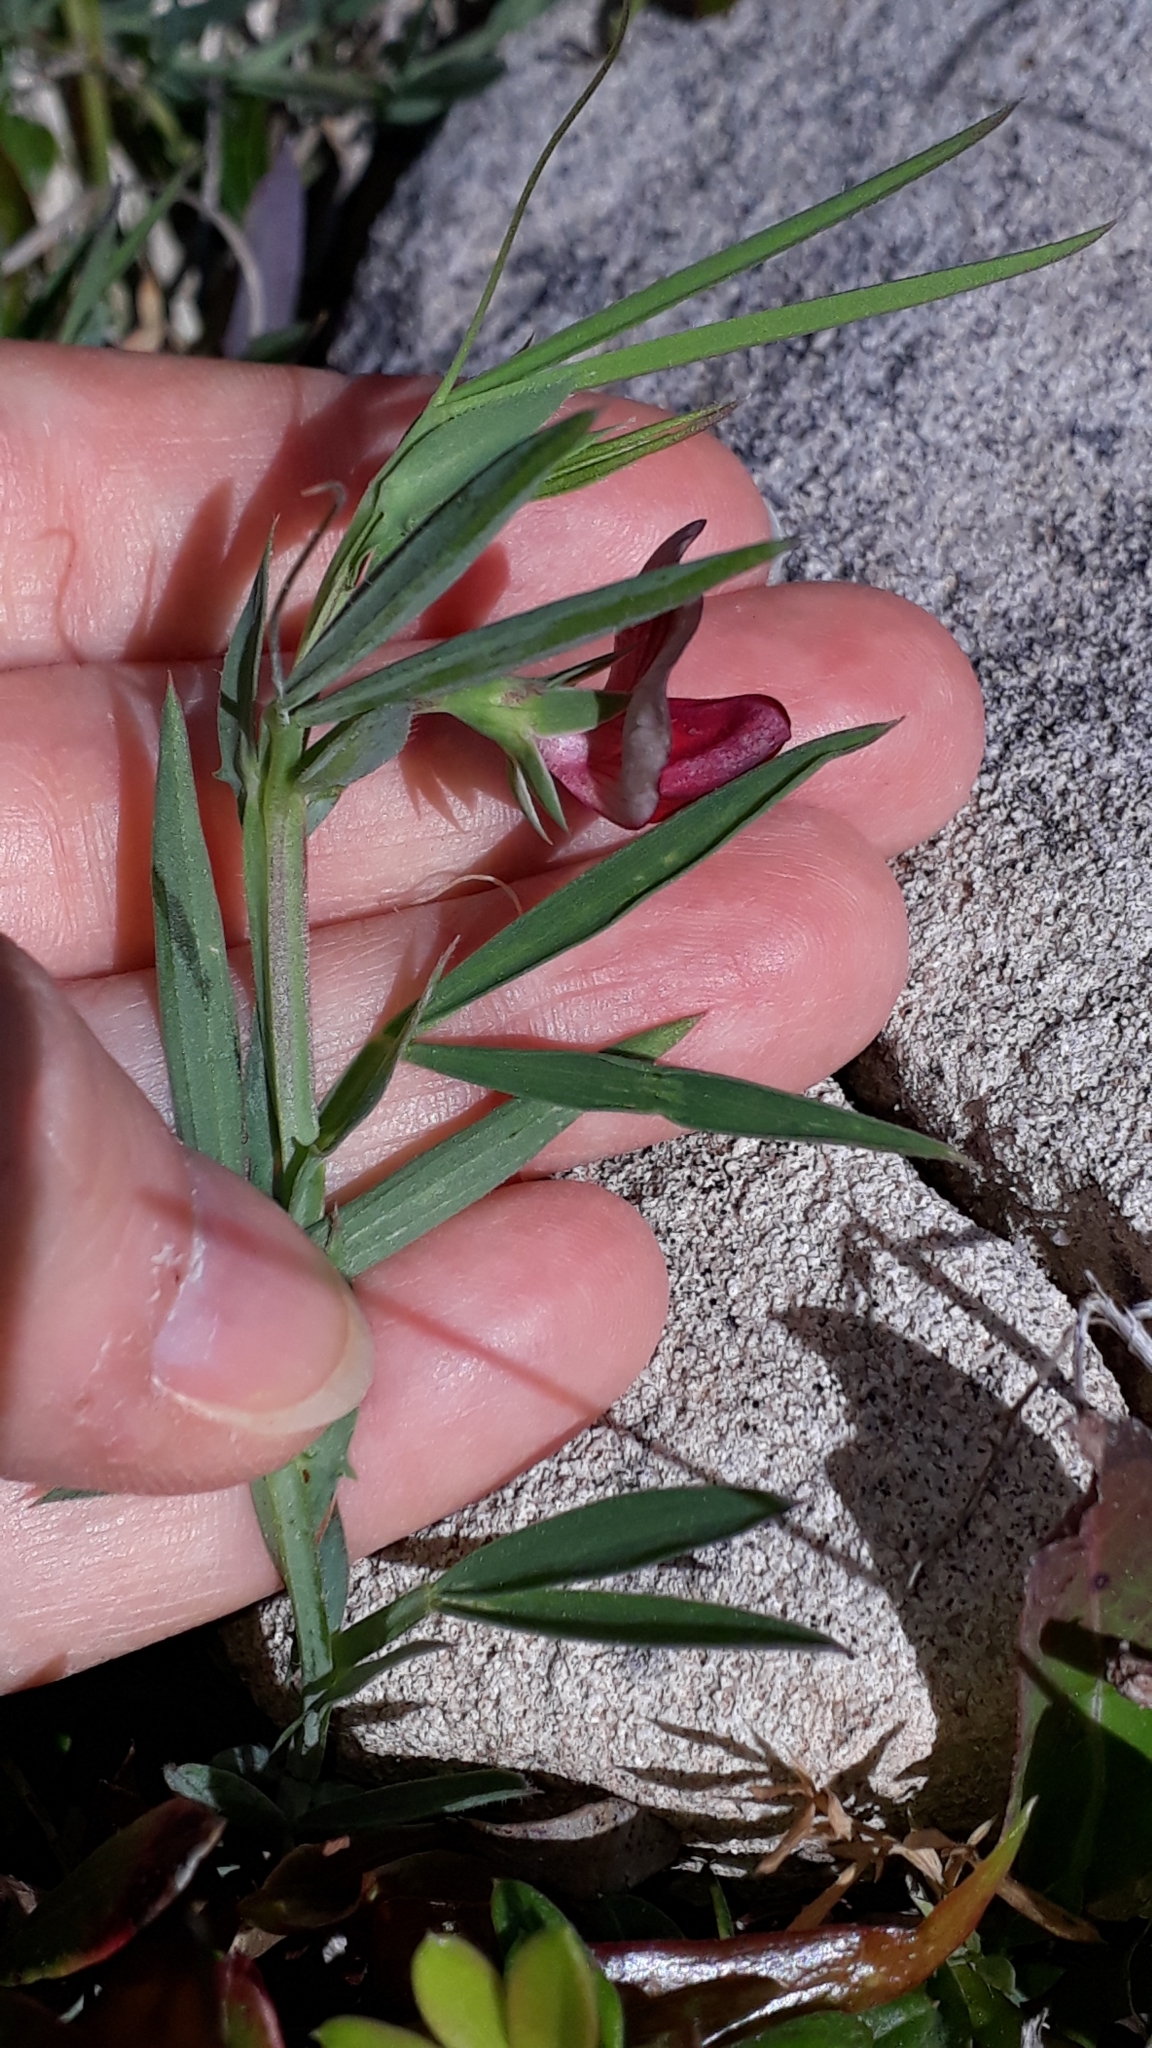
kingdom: Plantae
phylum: Tracheophyta
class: Magnoliopsida
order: Fabales
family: Fabaceae
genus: Lathyrus
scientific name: Lathyrus cicera
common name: Red vetchling
